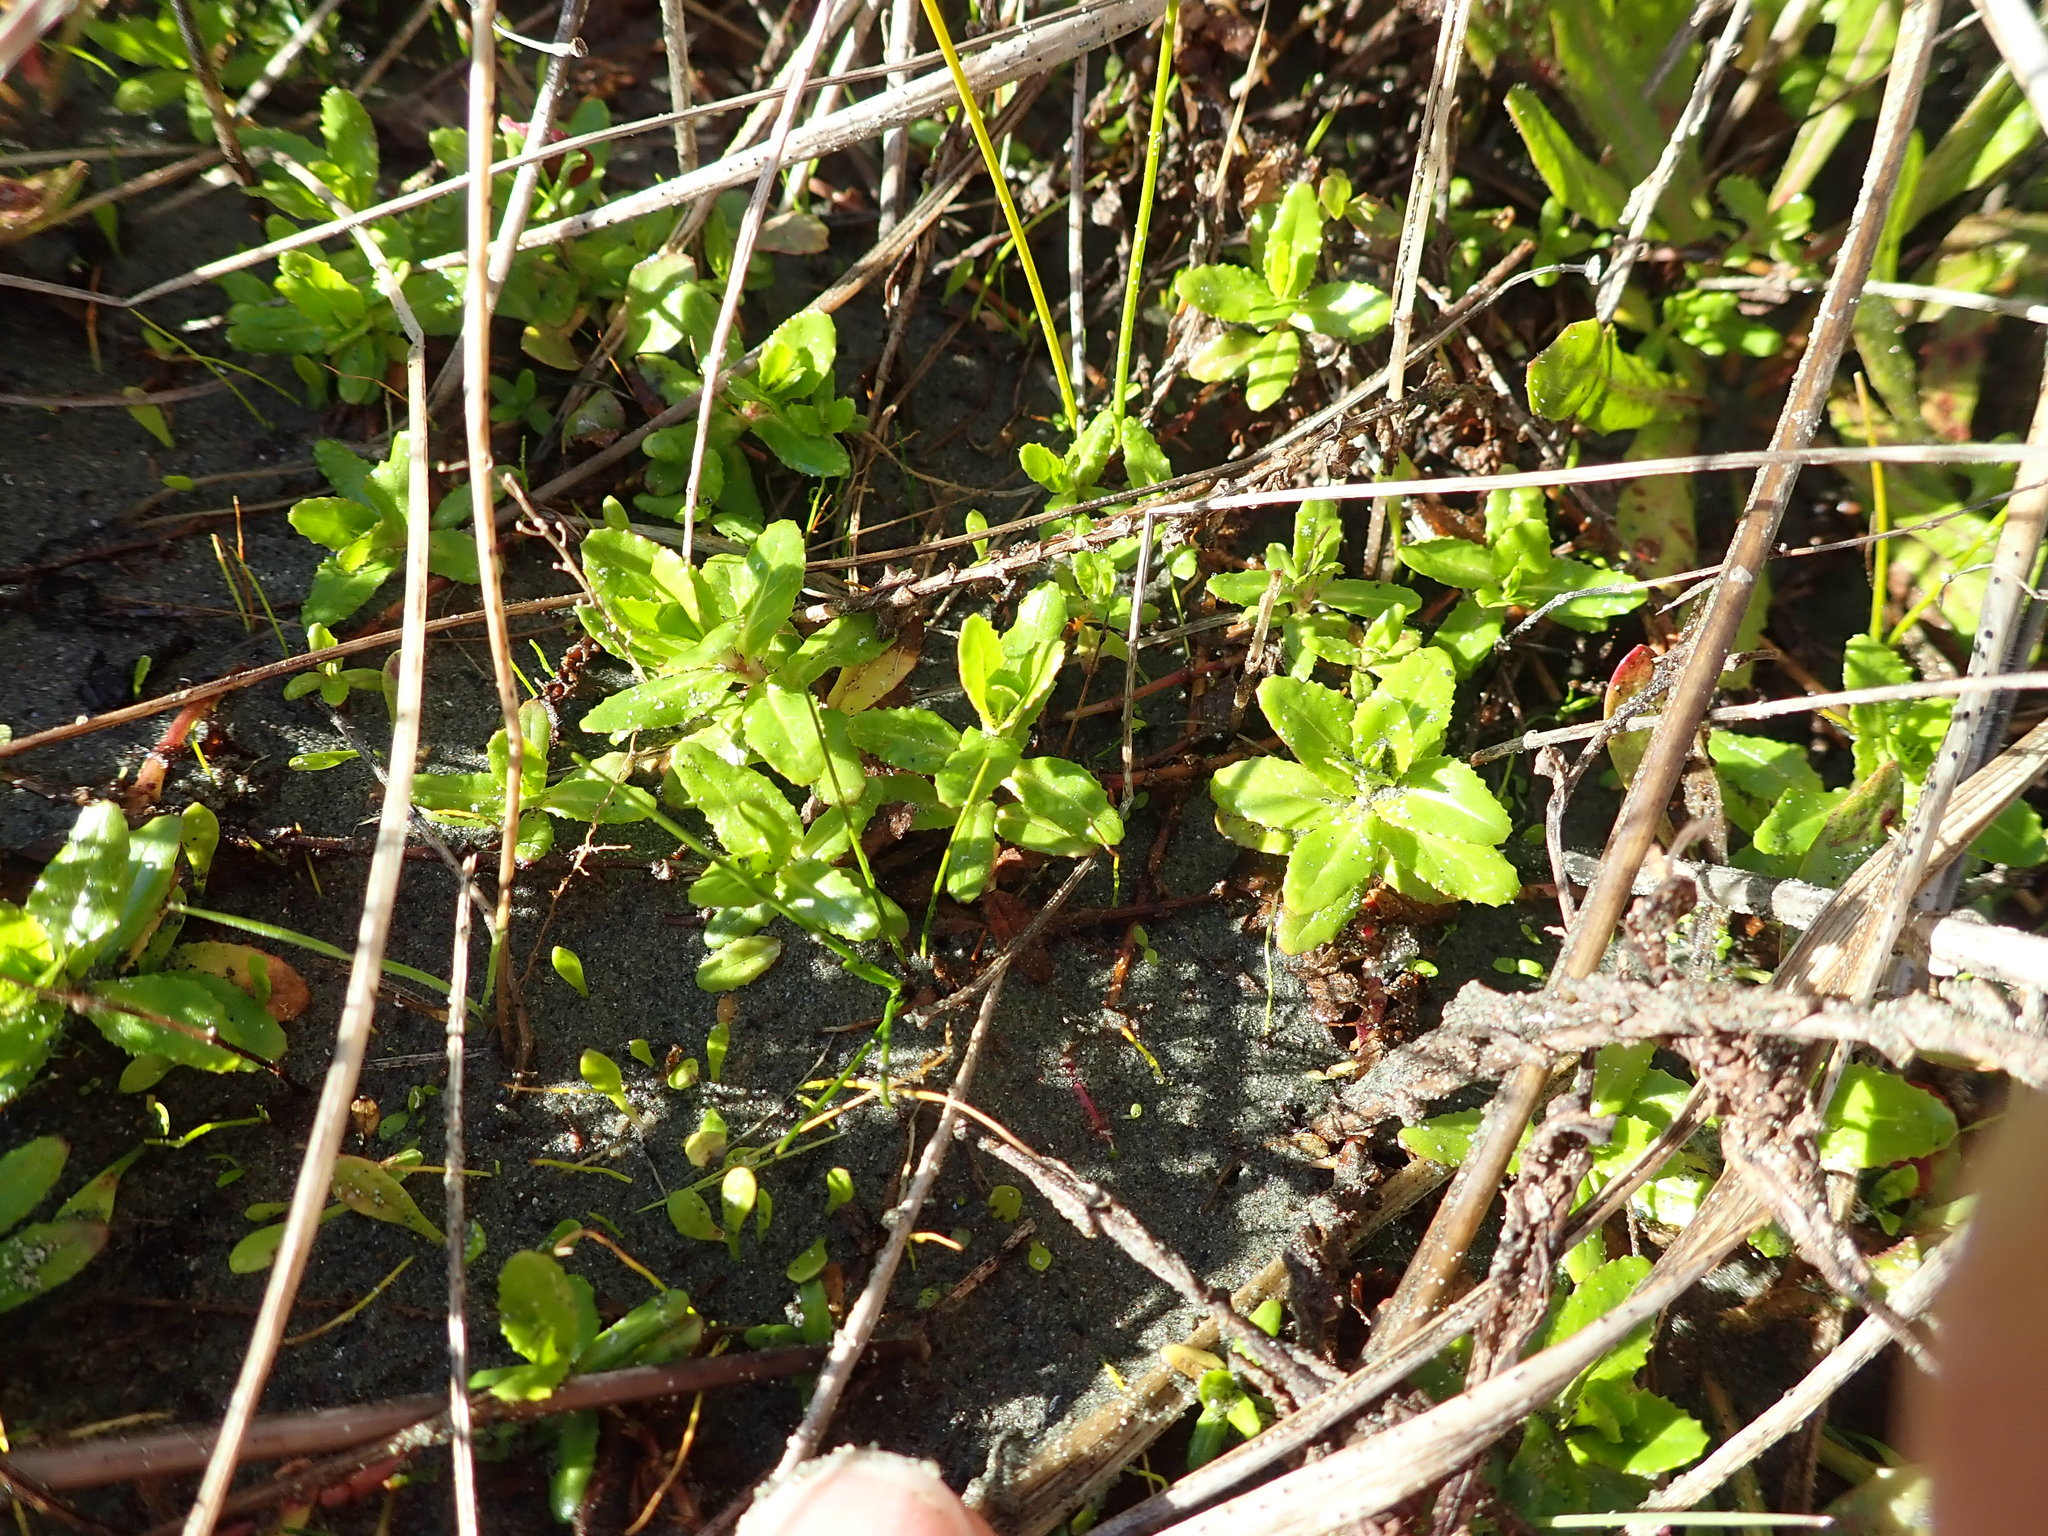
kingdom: Plantae
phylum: Tracheophyta
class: Magnoliopsida
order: Myrtales
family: Onagraceae
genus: Epilobium
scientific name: Epilobium billardiereanum
